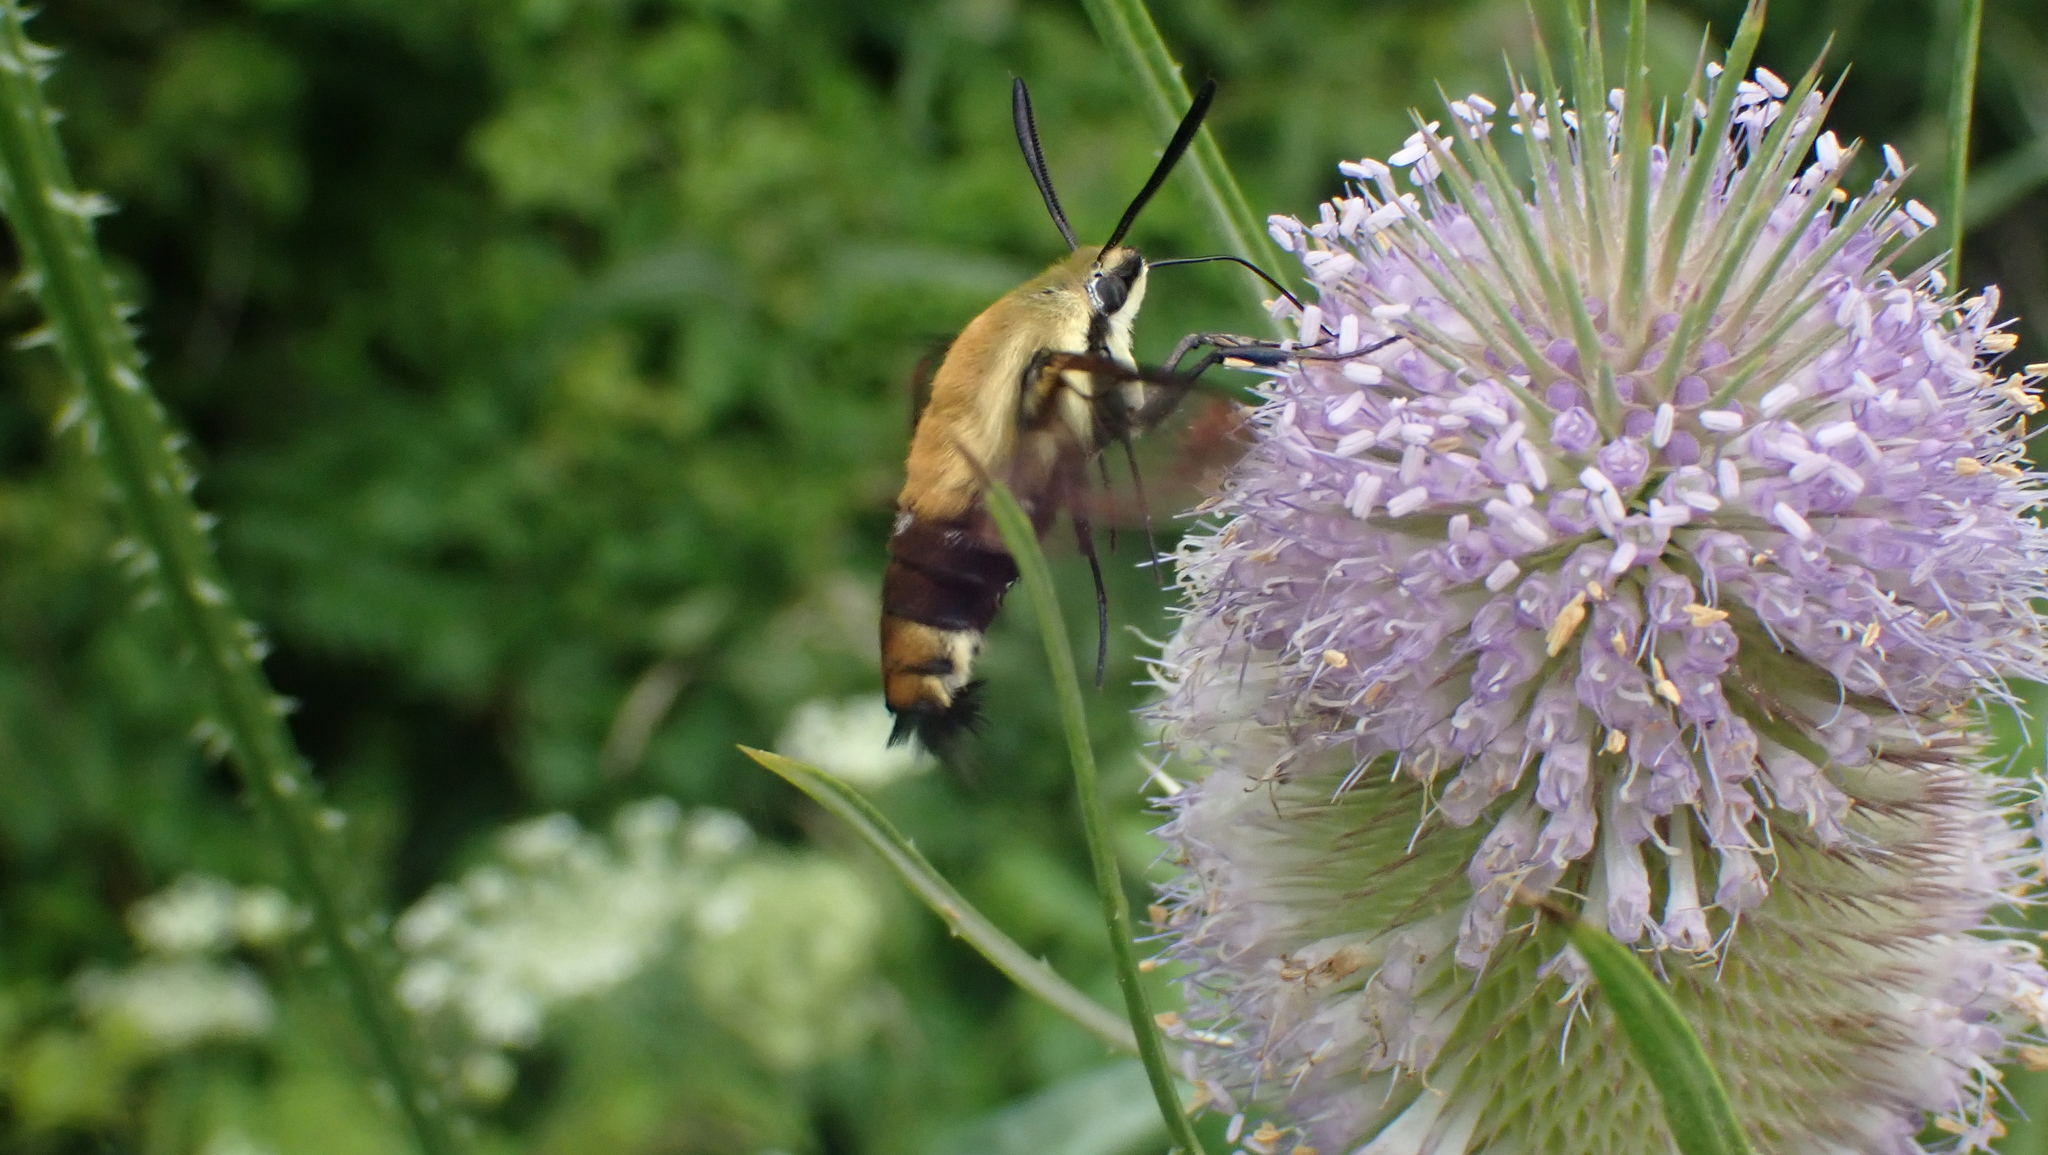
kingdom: Animalia
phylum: Arthropoda
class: Insecta
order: Lepidoptera
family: Sphingidae
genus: Hemaris
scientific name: Hemaris diffinis
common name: Bumblebee moth
